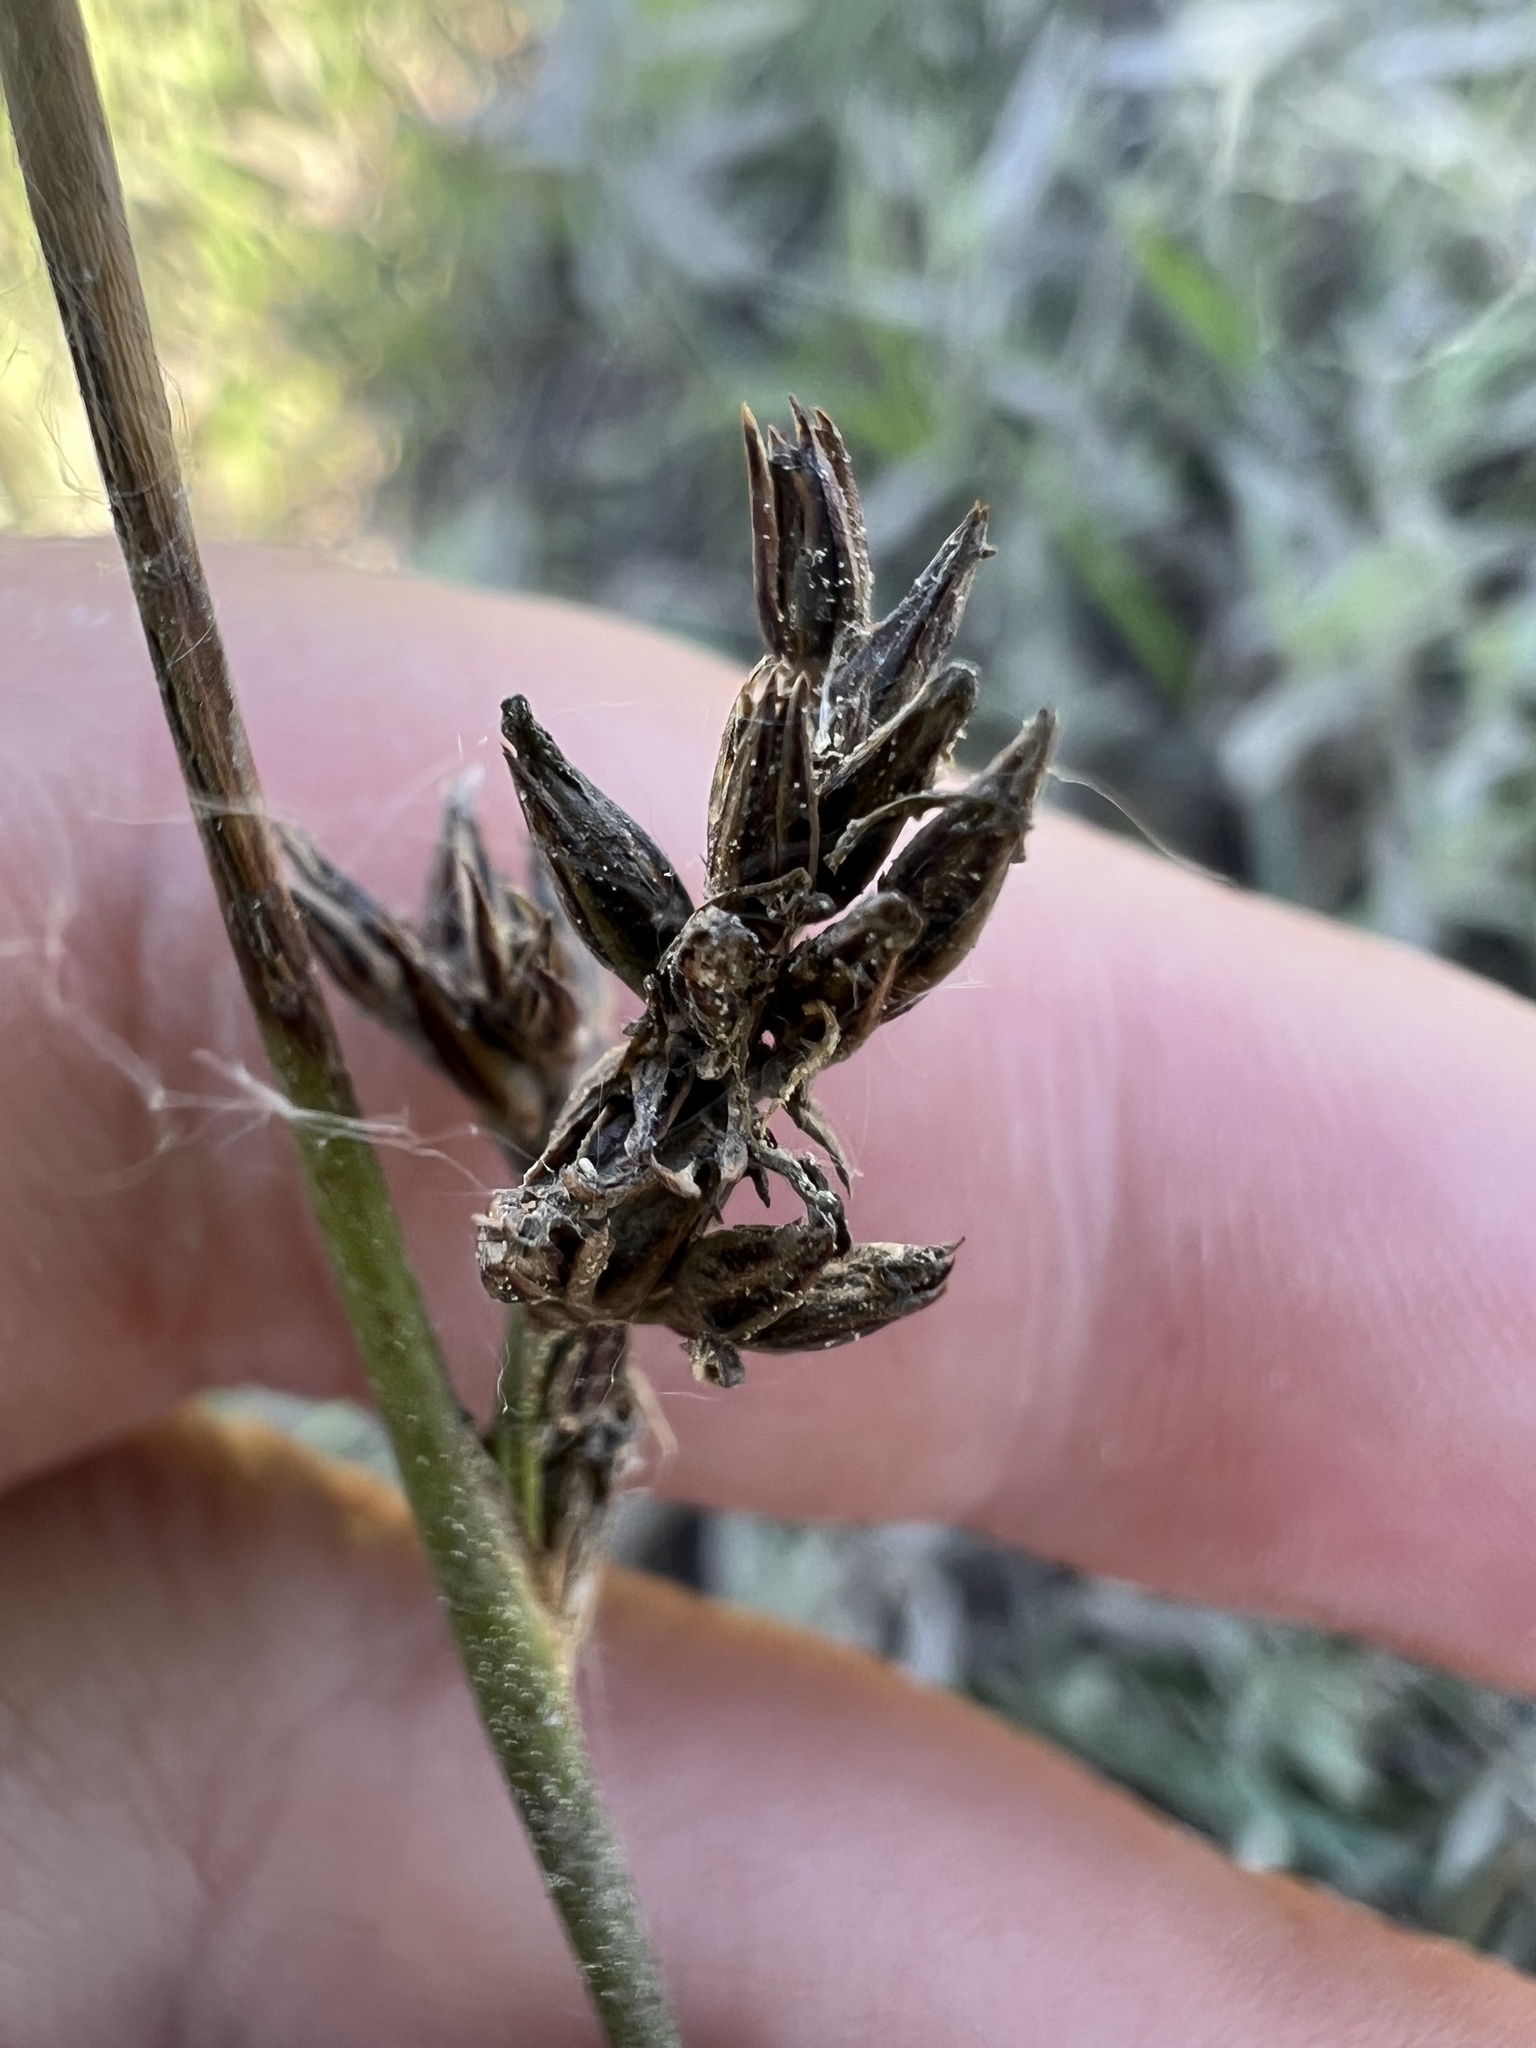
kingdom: Plantae
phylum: Tracheophyta
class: Liliopsida
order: Poales
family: Juncaceae
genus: Juncus
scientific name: Juncus balticus
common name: Baltic rush
